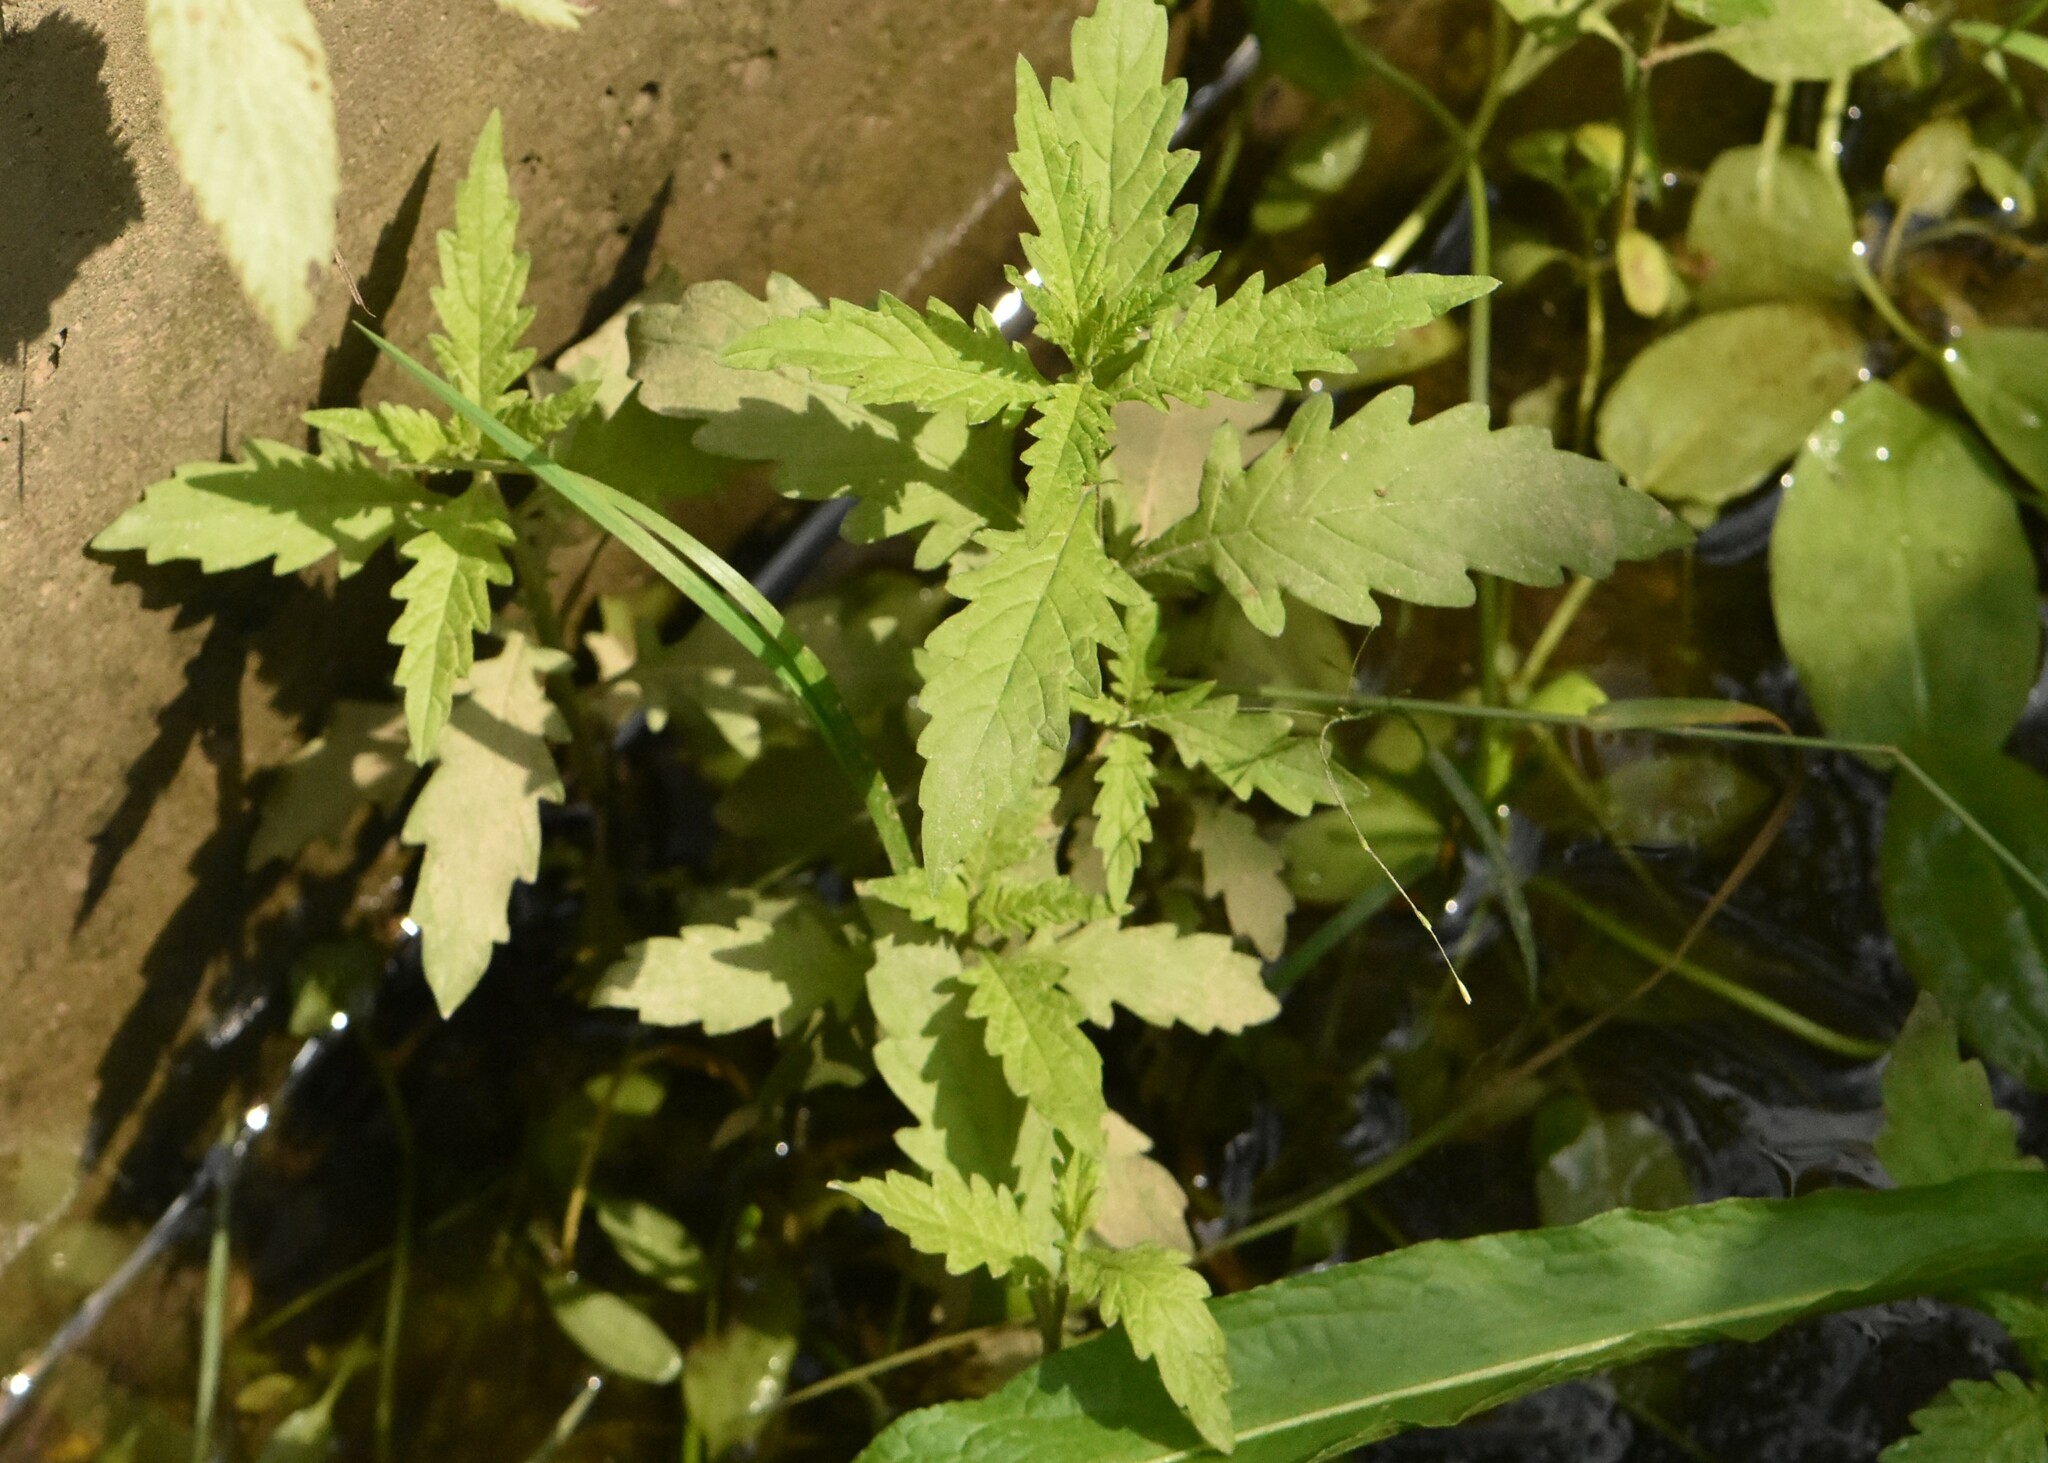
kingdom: Plantae
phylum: Tracheophyta
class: Magnoliopsida
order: Lamiales
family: Lamiaceae
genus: Lycopus
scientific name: Lycopus europaeus
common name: European bugleweed
